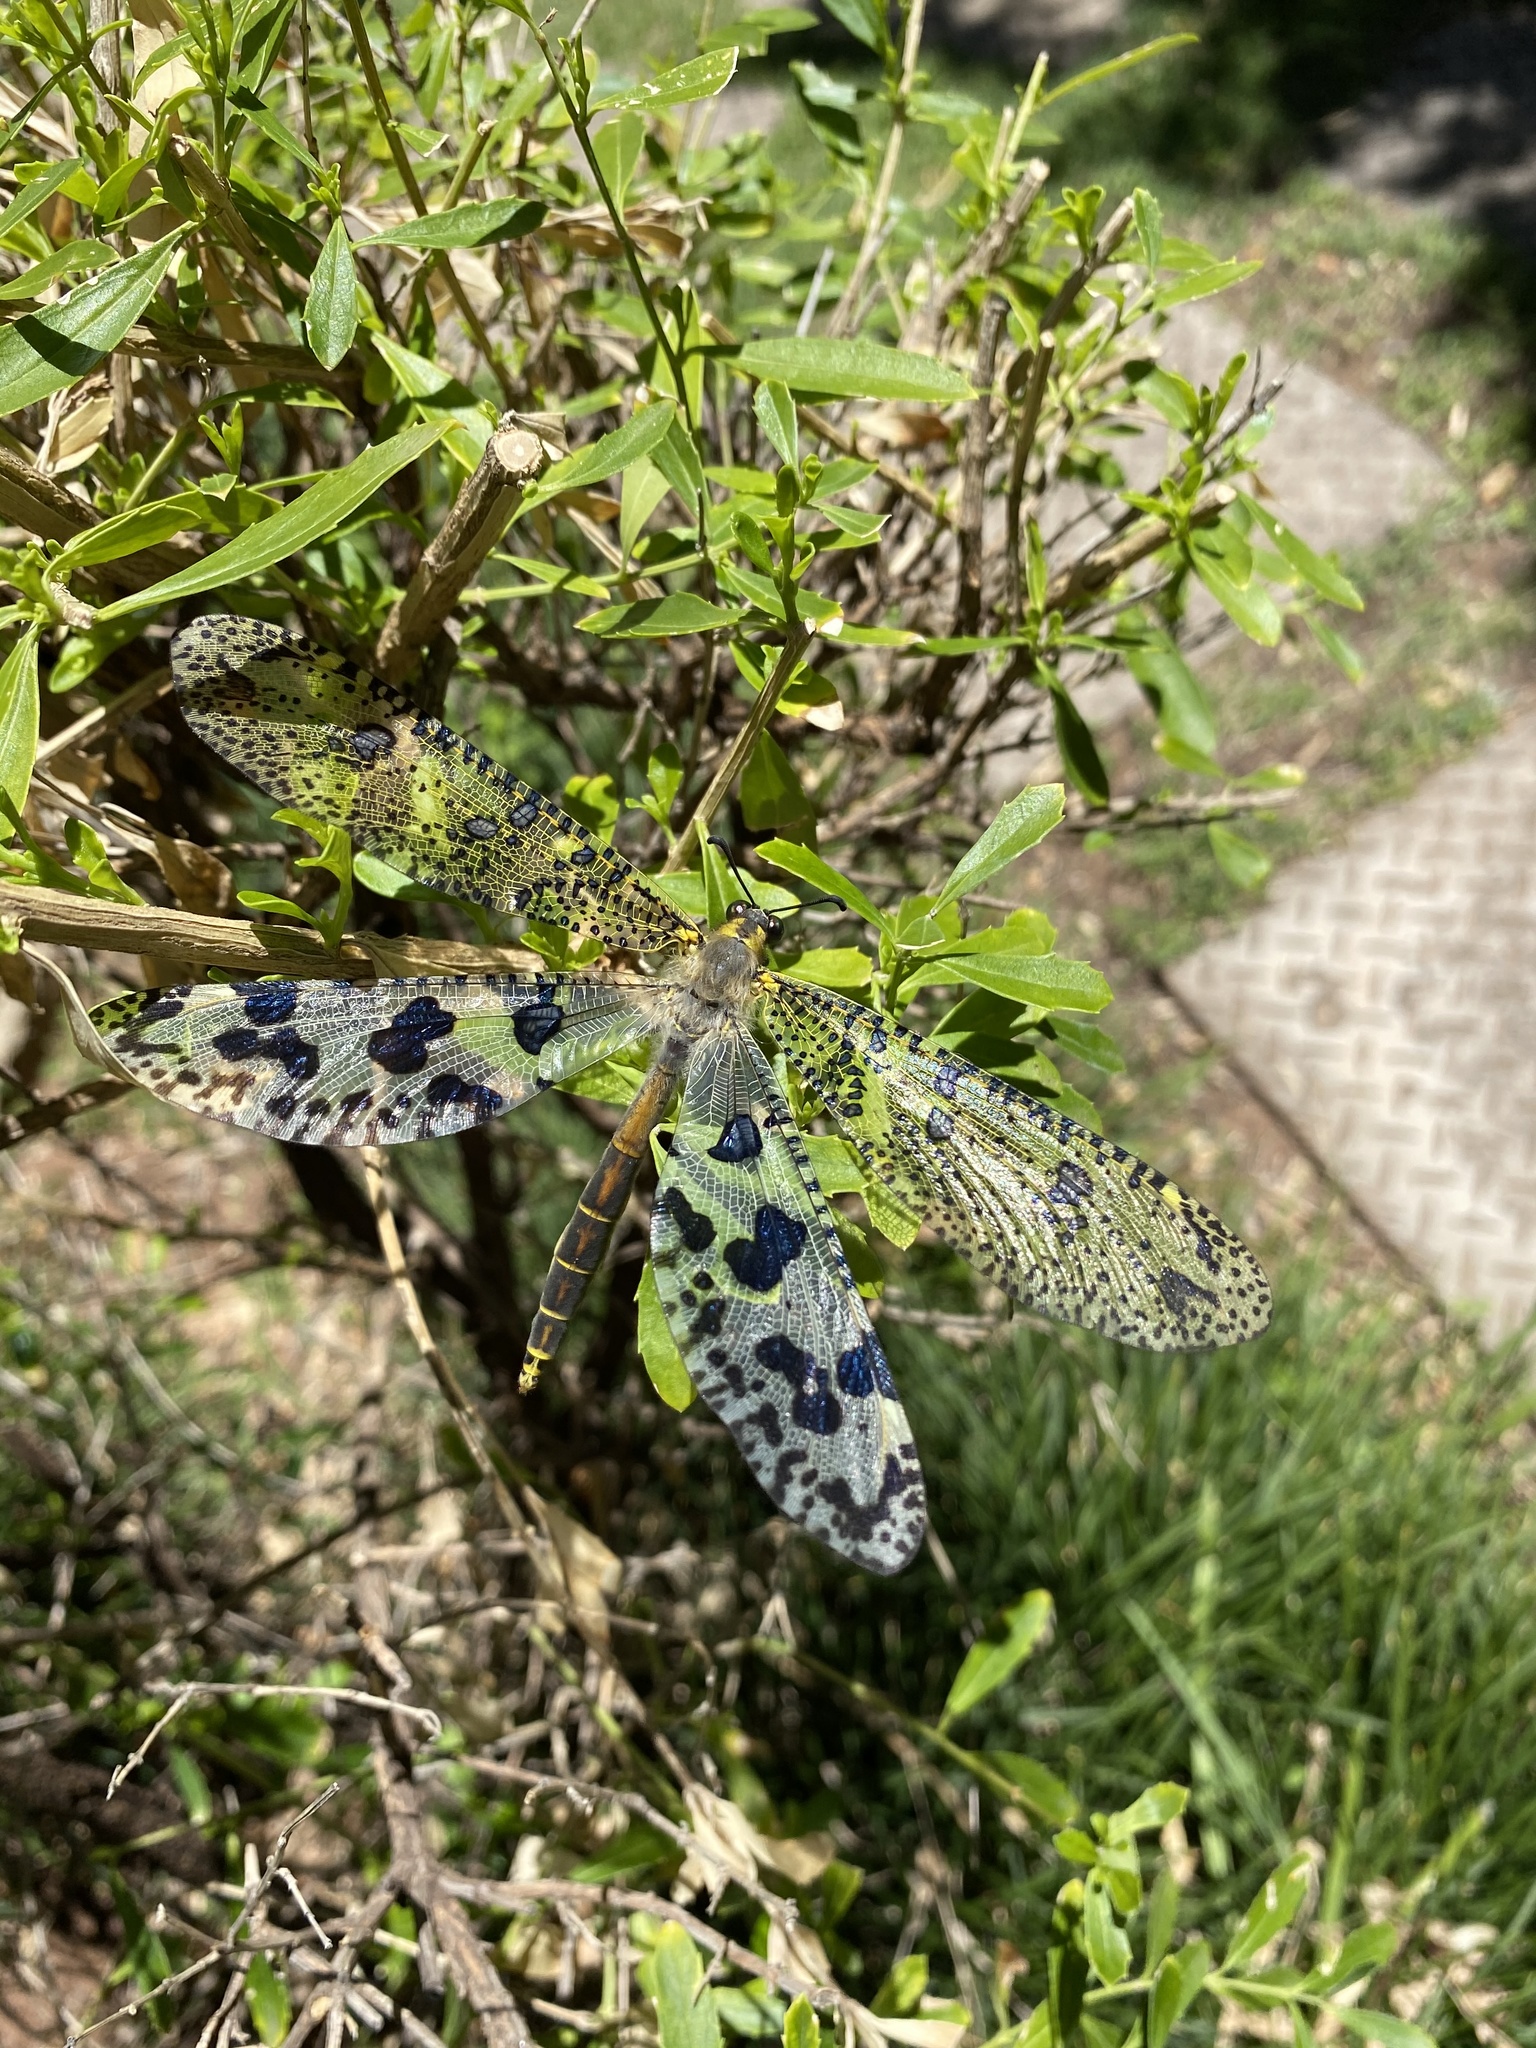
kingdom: Animalia
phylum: Arthropoda
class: Insecta
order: Neuroptera
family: Myrmeleontidae
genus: Palpares
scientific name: Palpares caffer
